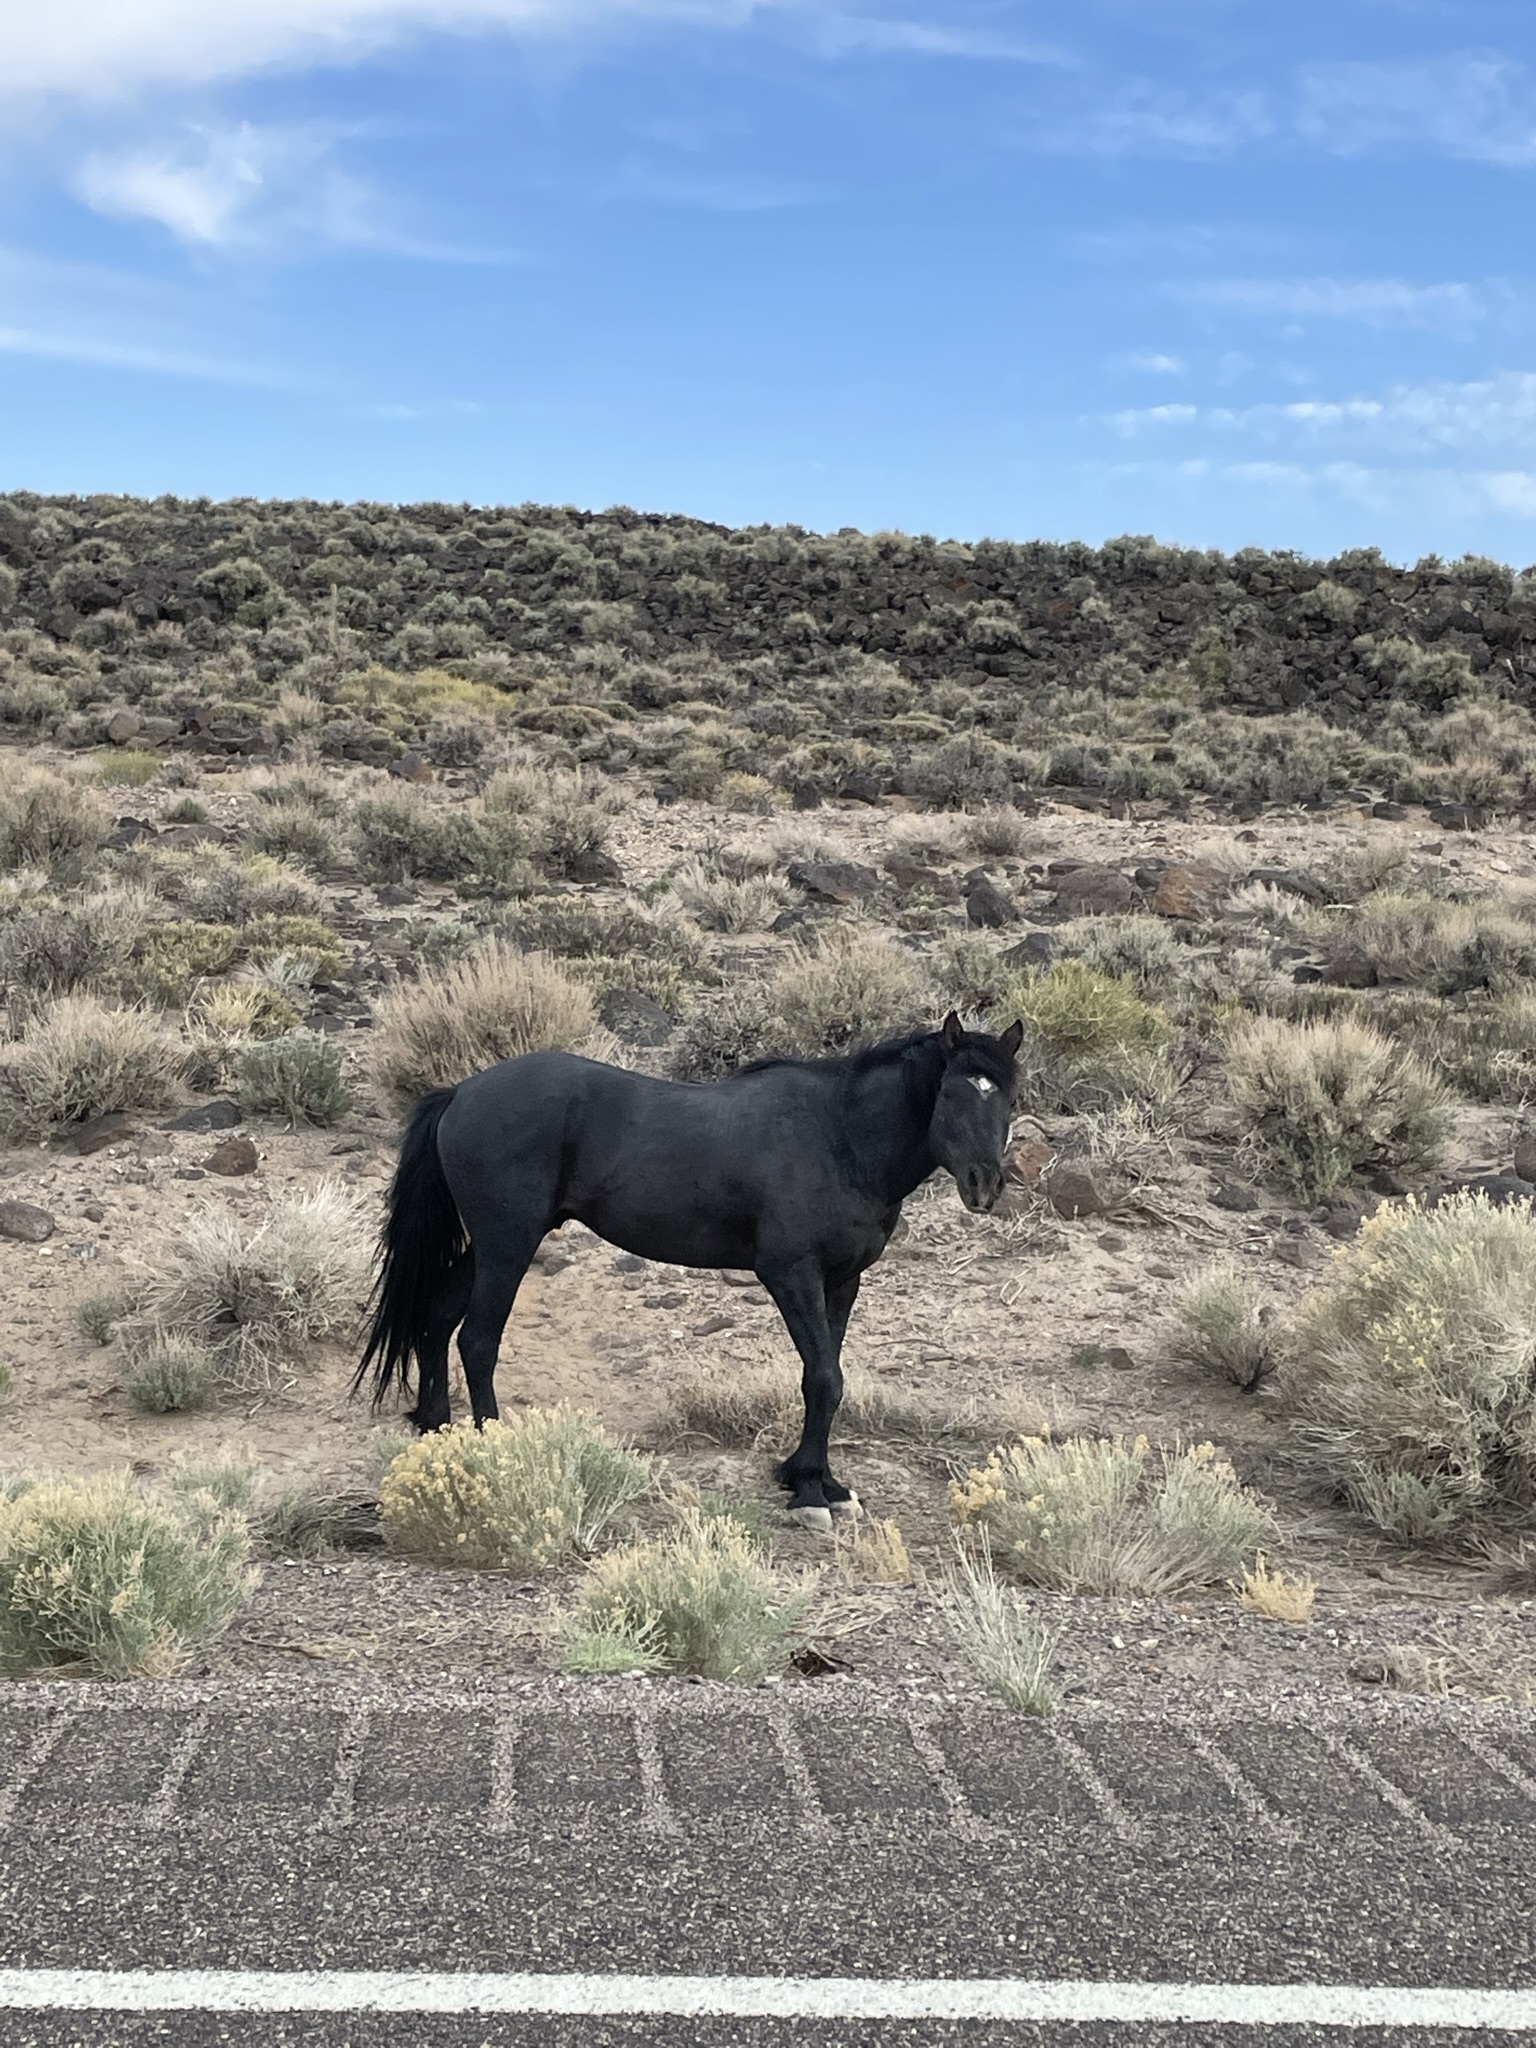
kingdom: Animalia
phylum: Chordata
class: Mammalia
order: Perissodactyla
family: Equidae
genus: Equus
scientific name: Equus caballus
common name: Horse
